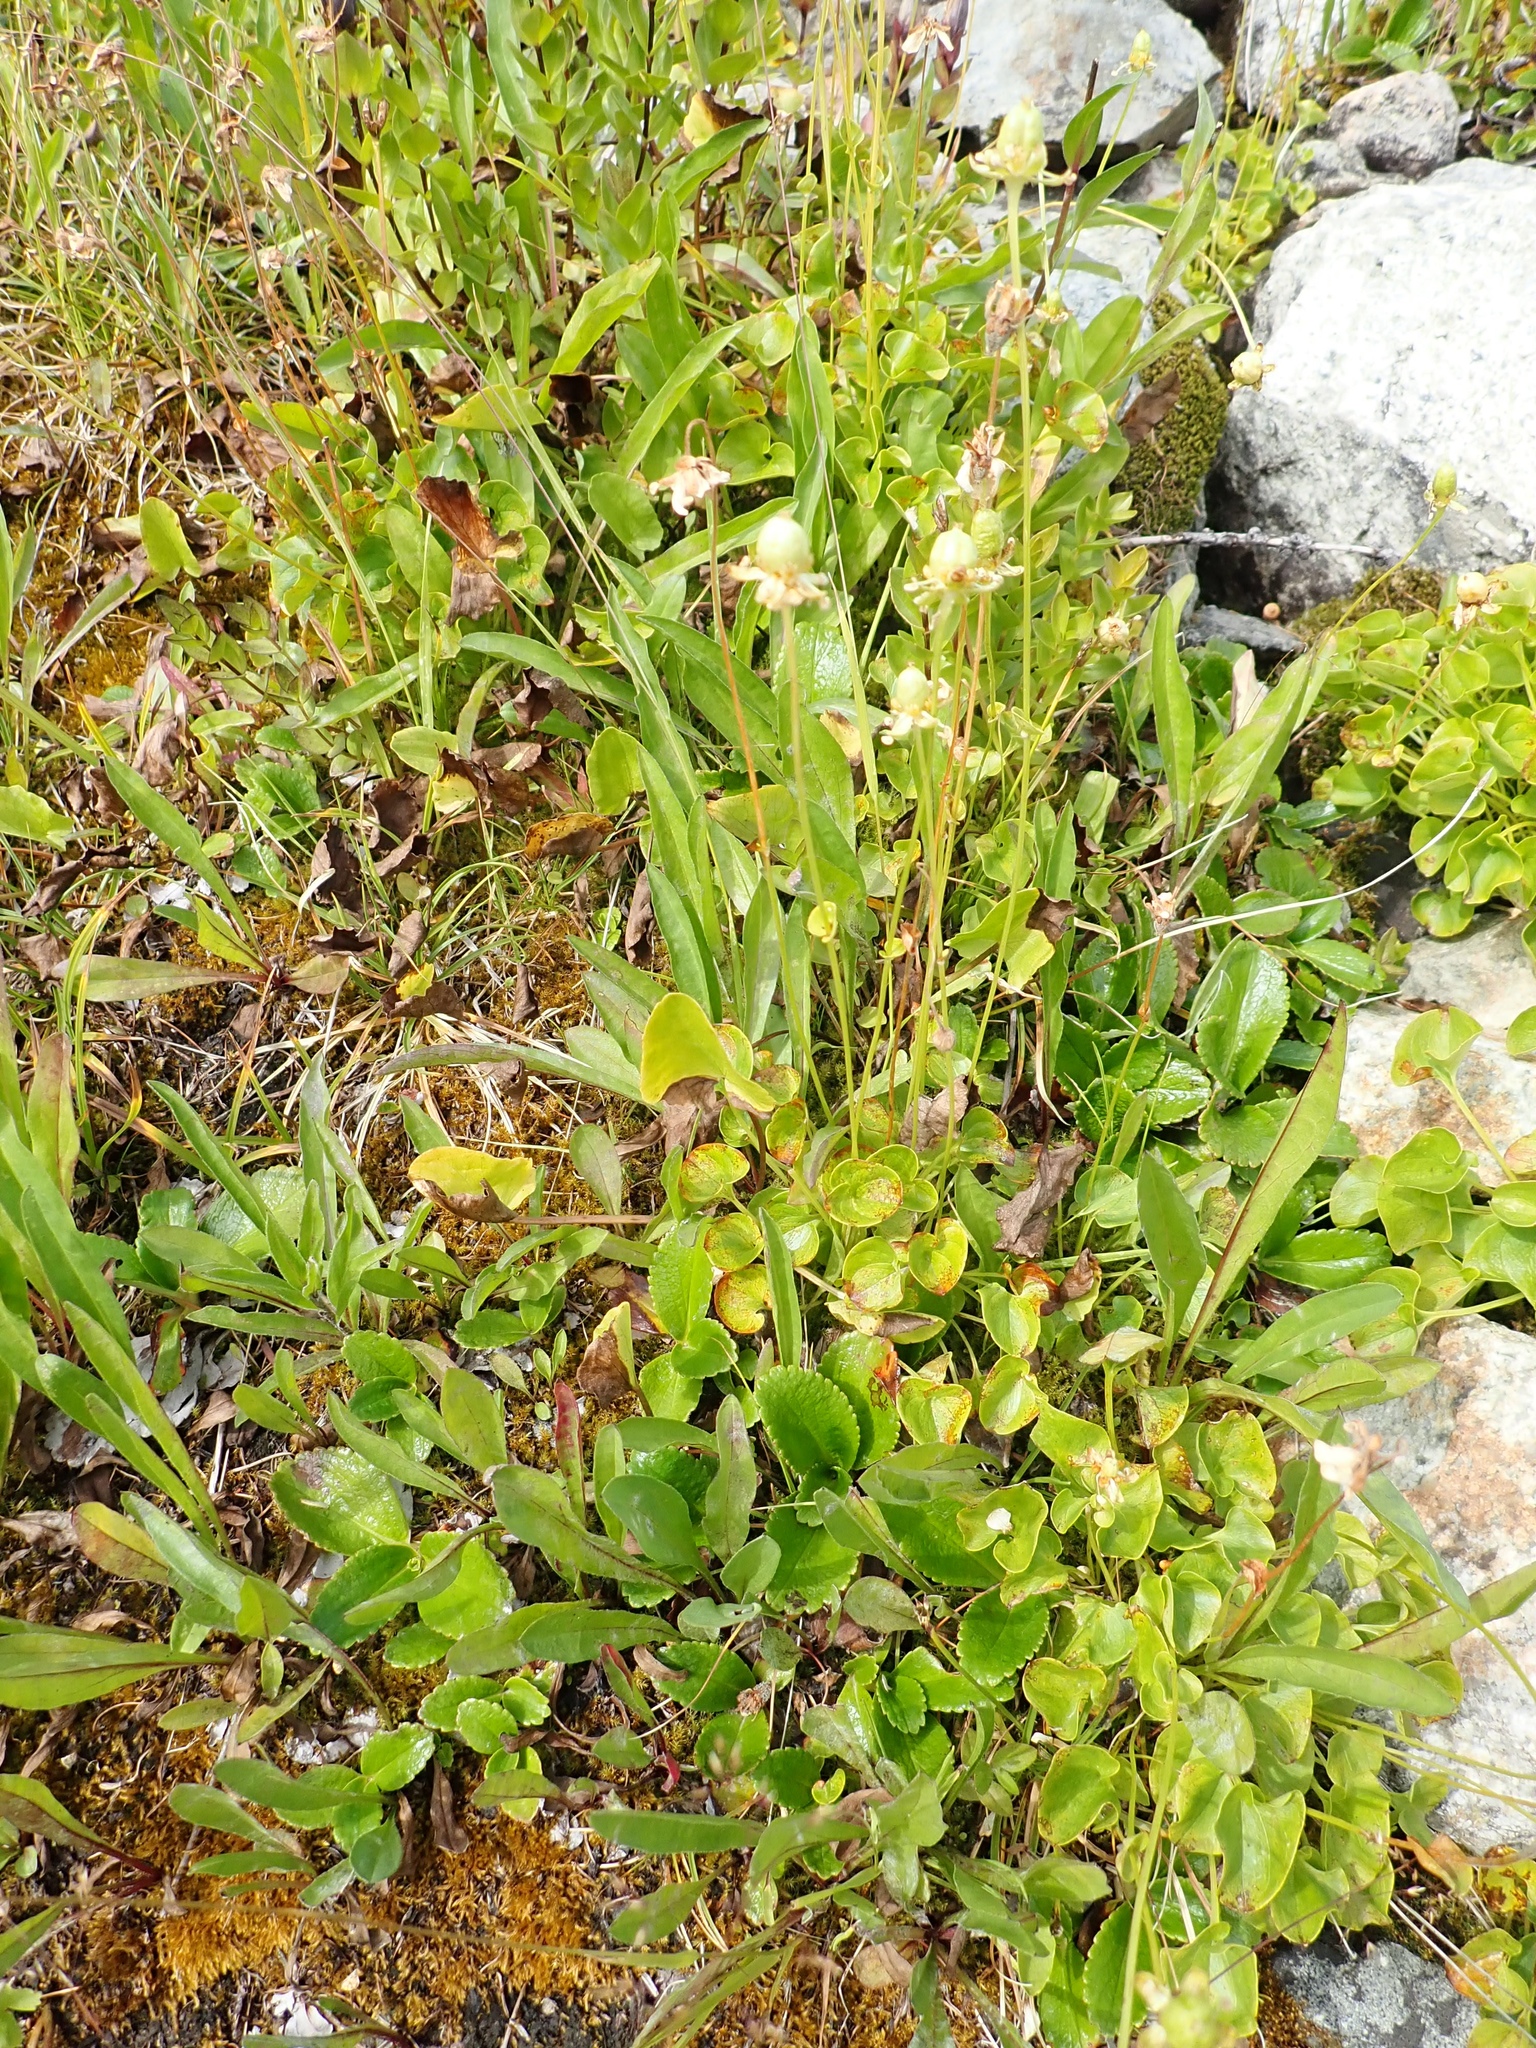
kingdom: Plantae
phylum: Tracheophyta
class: Magnoliopsida
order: Celastrales
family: Parnassiaceae
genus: Parnassia
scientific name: Parnassia fimbriata
